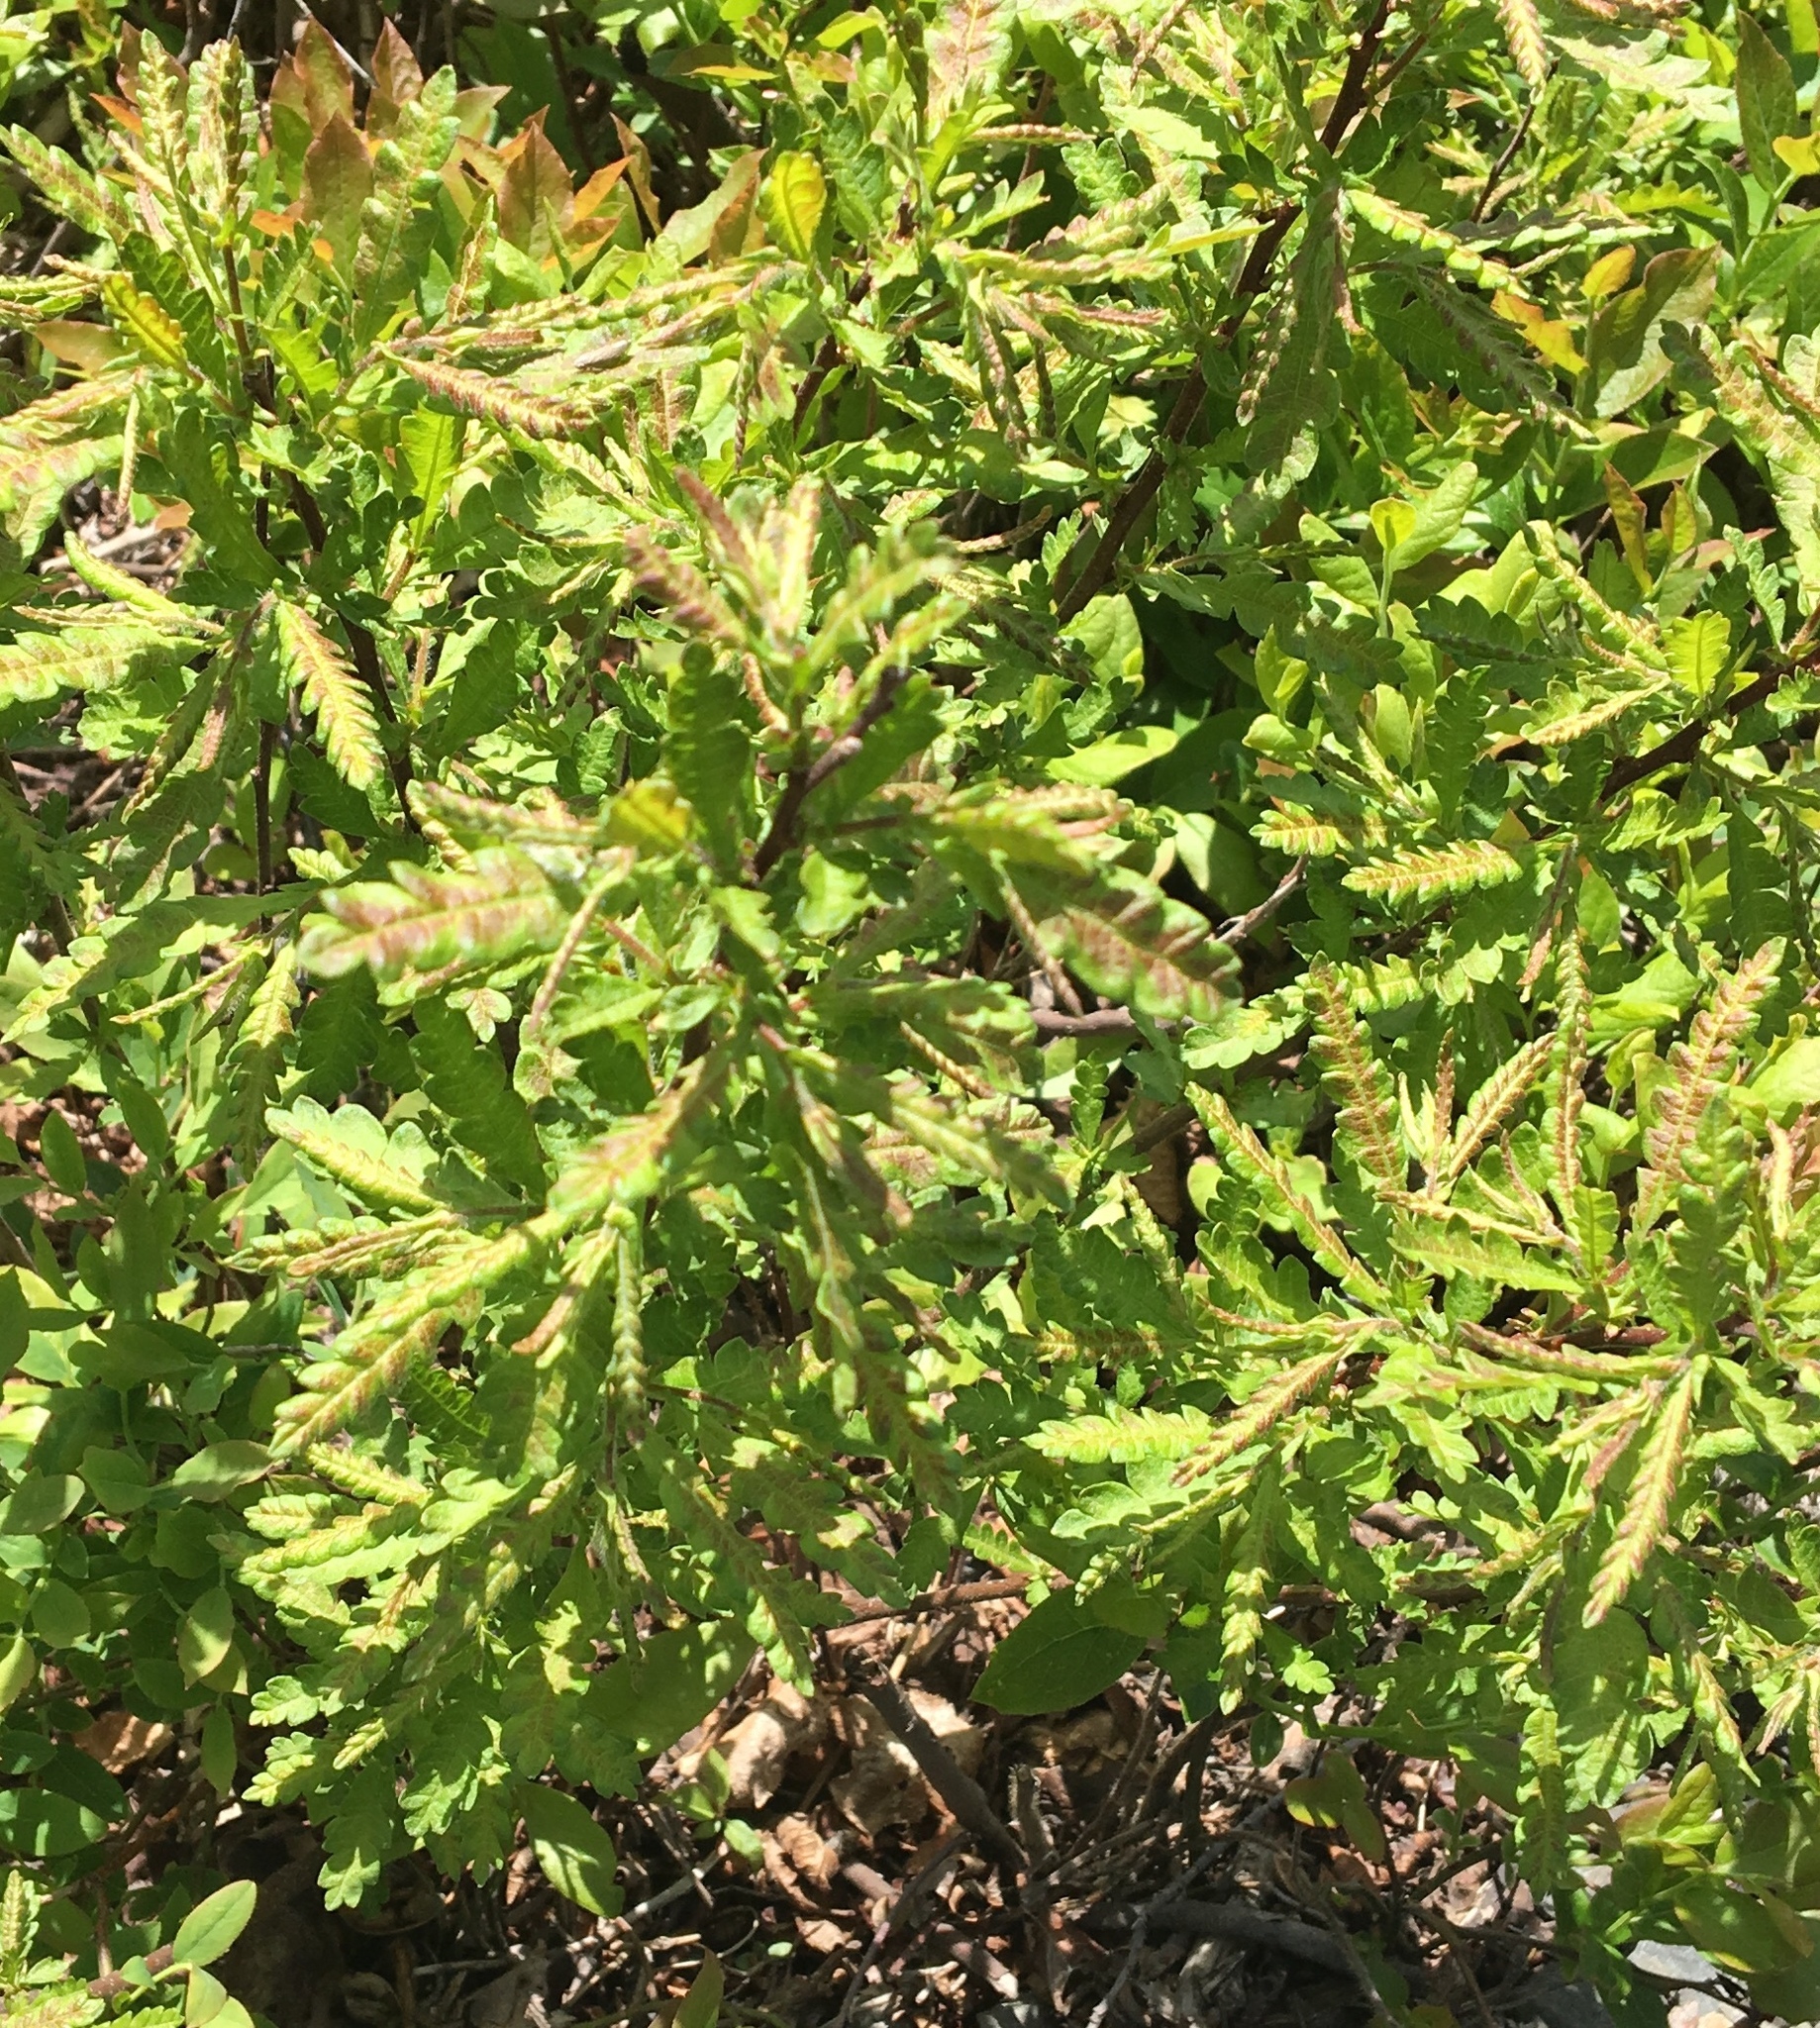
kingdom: Plantae
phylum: Tracheophyta
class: Magnoliopsida
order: Fagales
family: Myricaceae
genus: Comptonia
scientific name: Comptonia peregrina
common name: Sweet-fern
